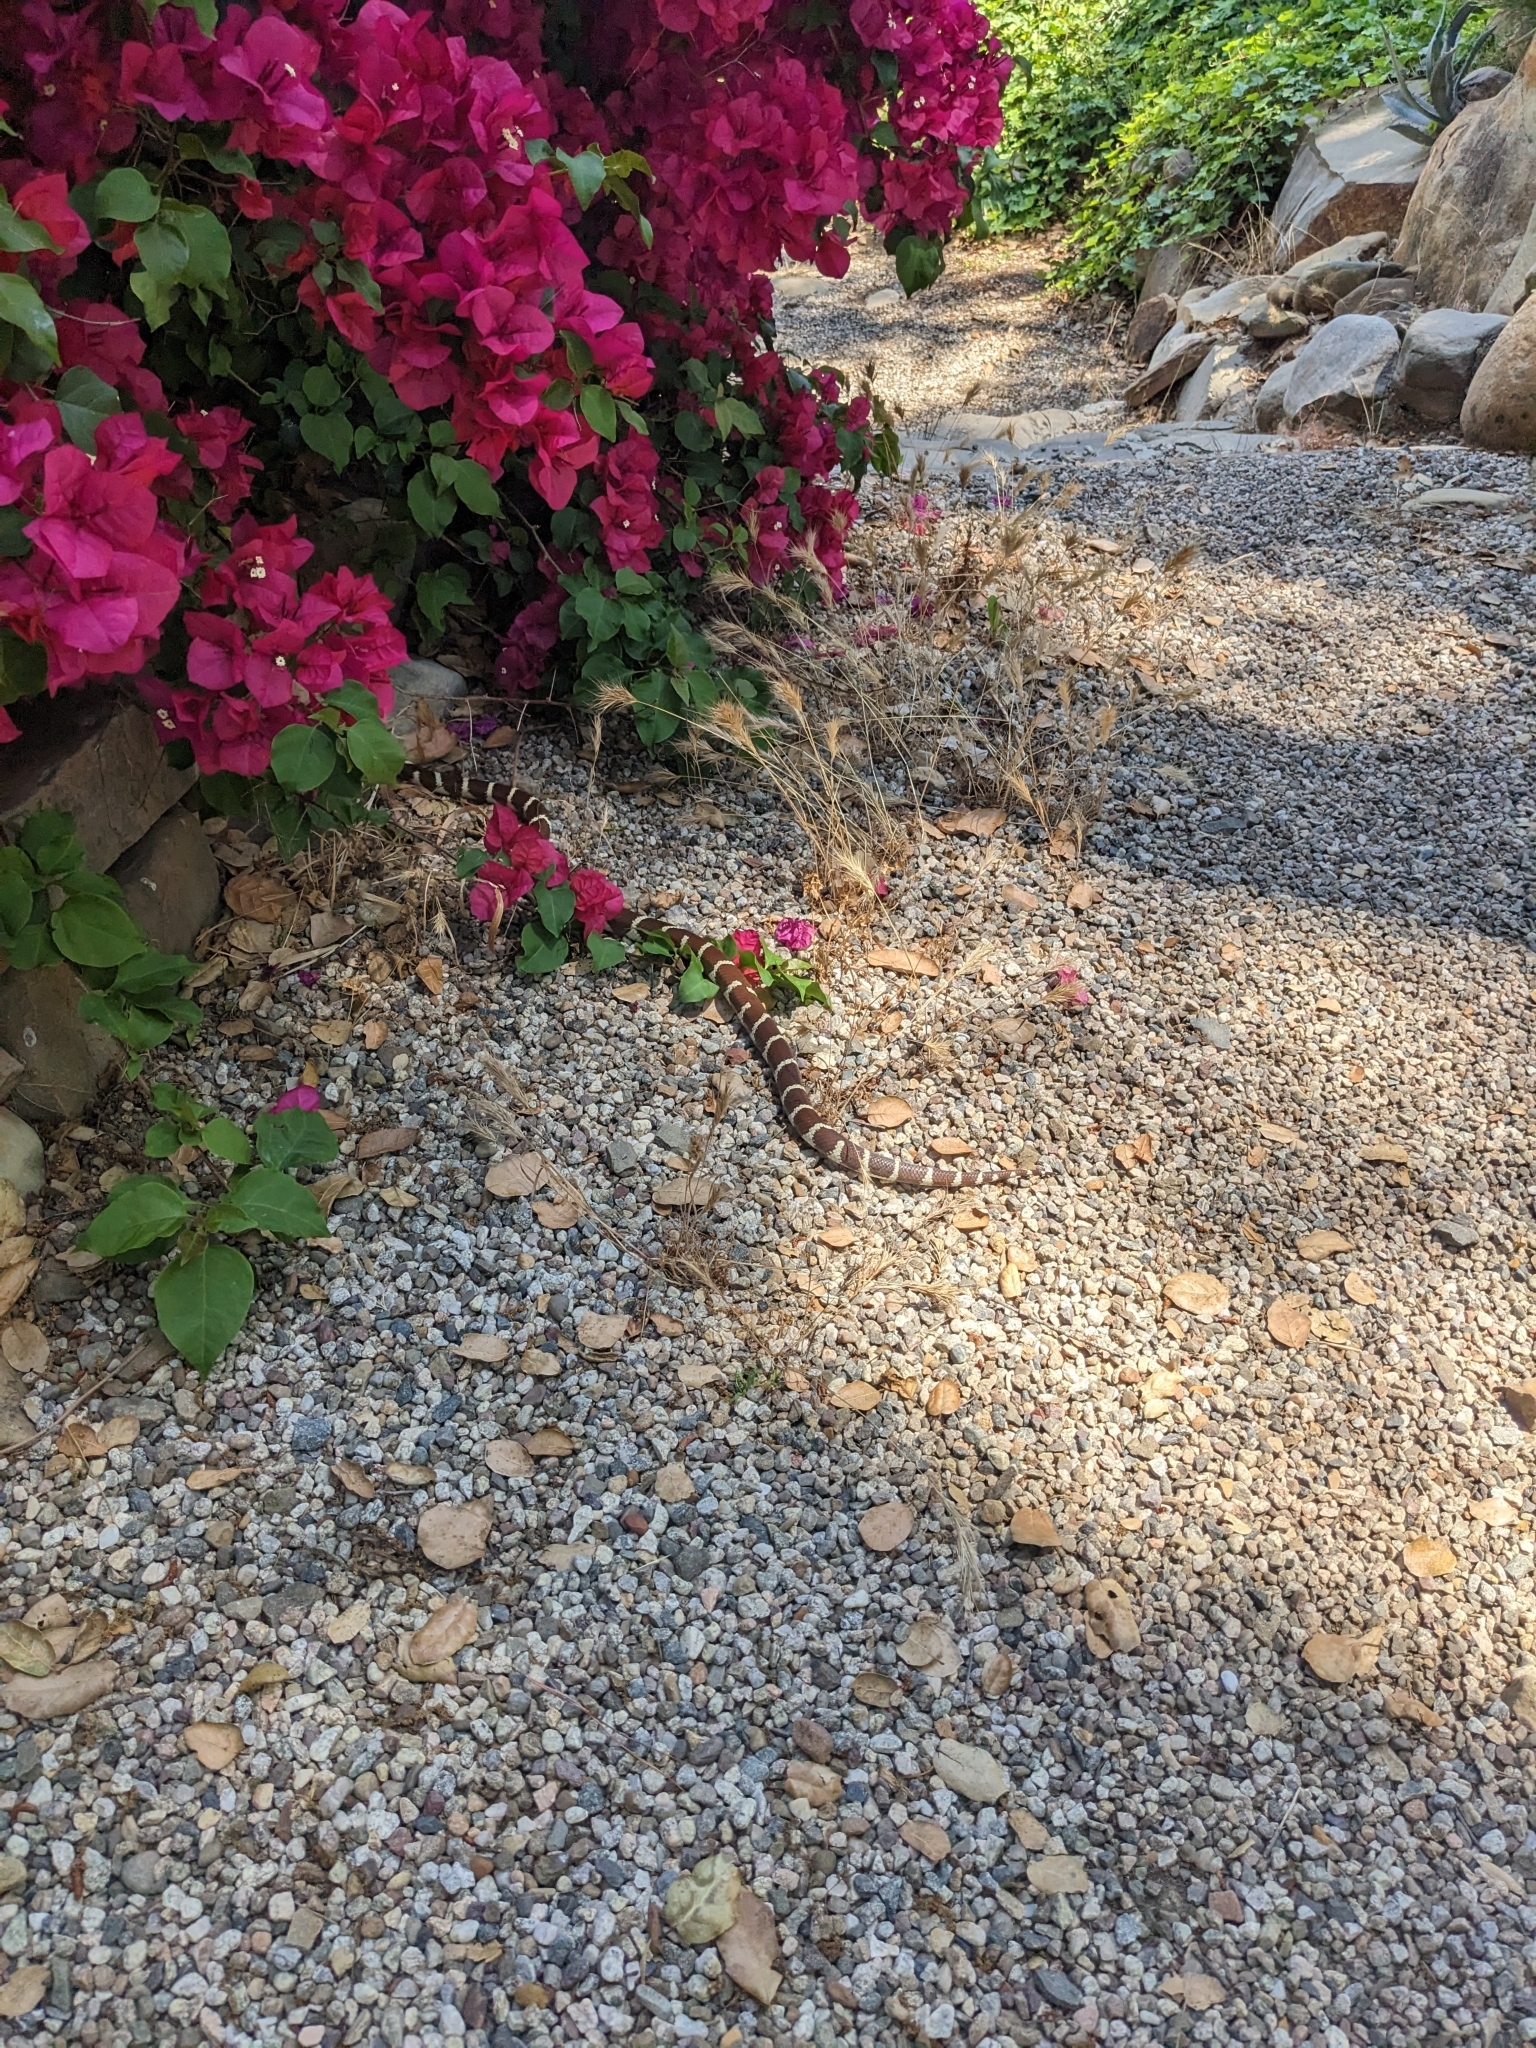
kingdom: Animalia
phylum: Chordata
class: Squamata
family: Colubridae
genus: Lampropeltis
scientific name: Lampropeltis californiae
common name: California kingsnake
